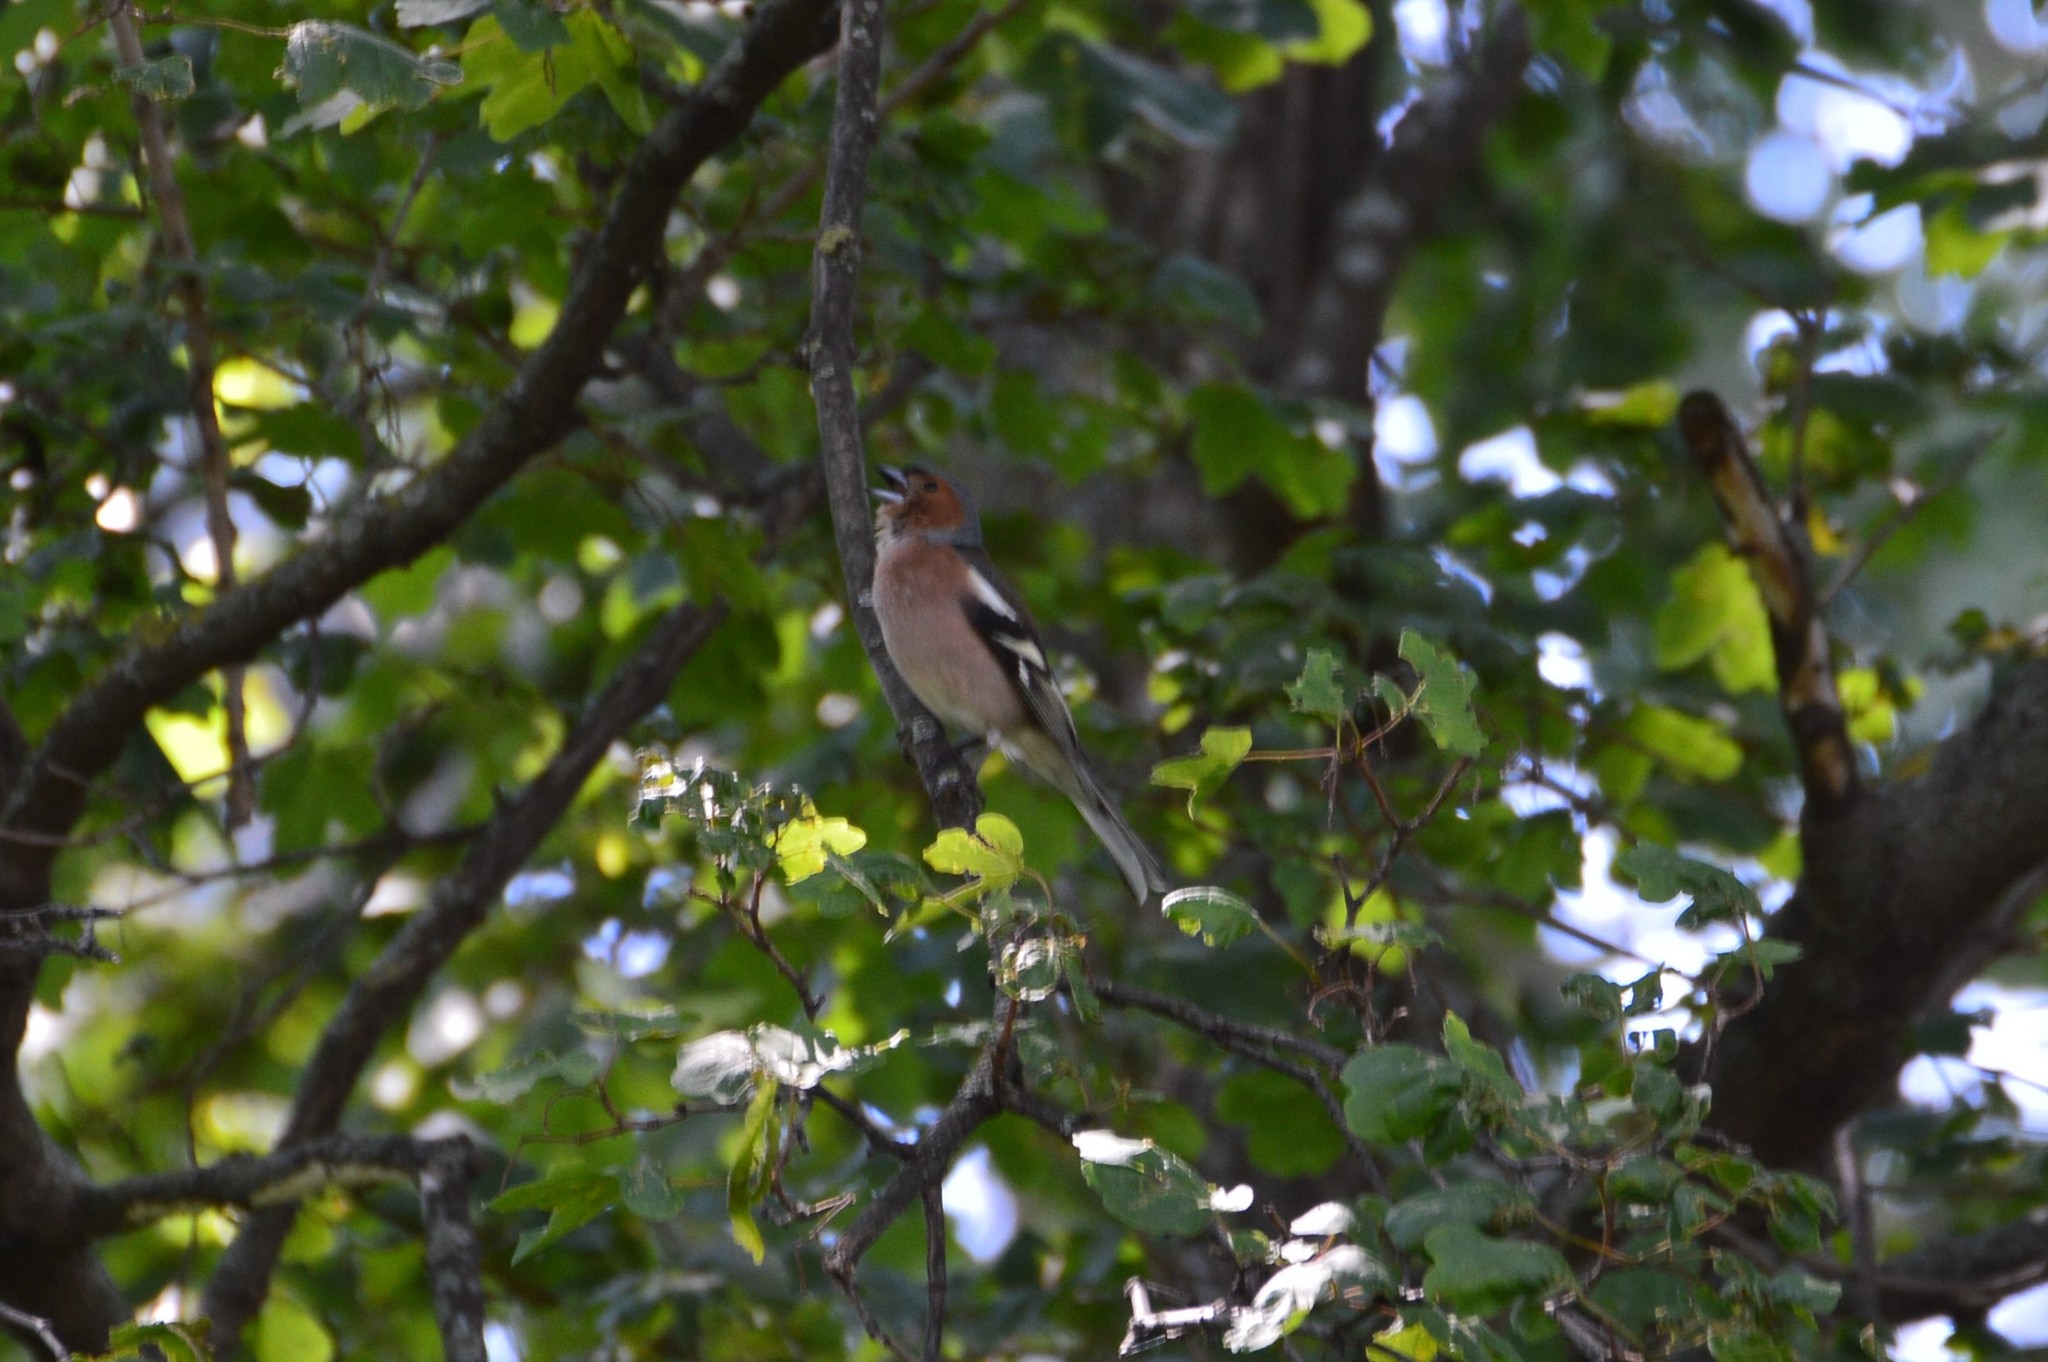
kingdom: Animalia
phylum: Chordata
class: Aves
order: Passeriformes
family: Fringillidae
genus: Fringilla
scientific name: Fringilla coelebs
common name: Common chaffinch
